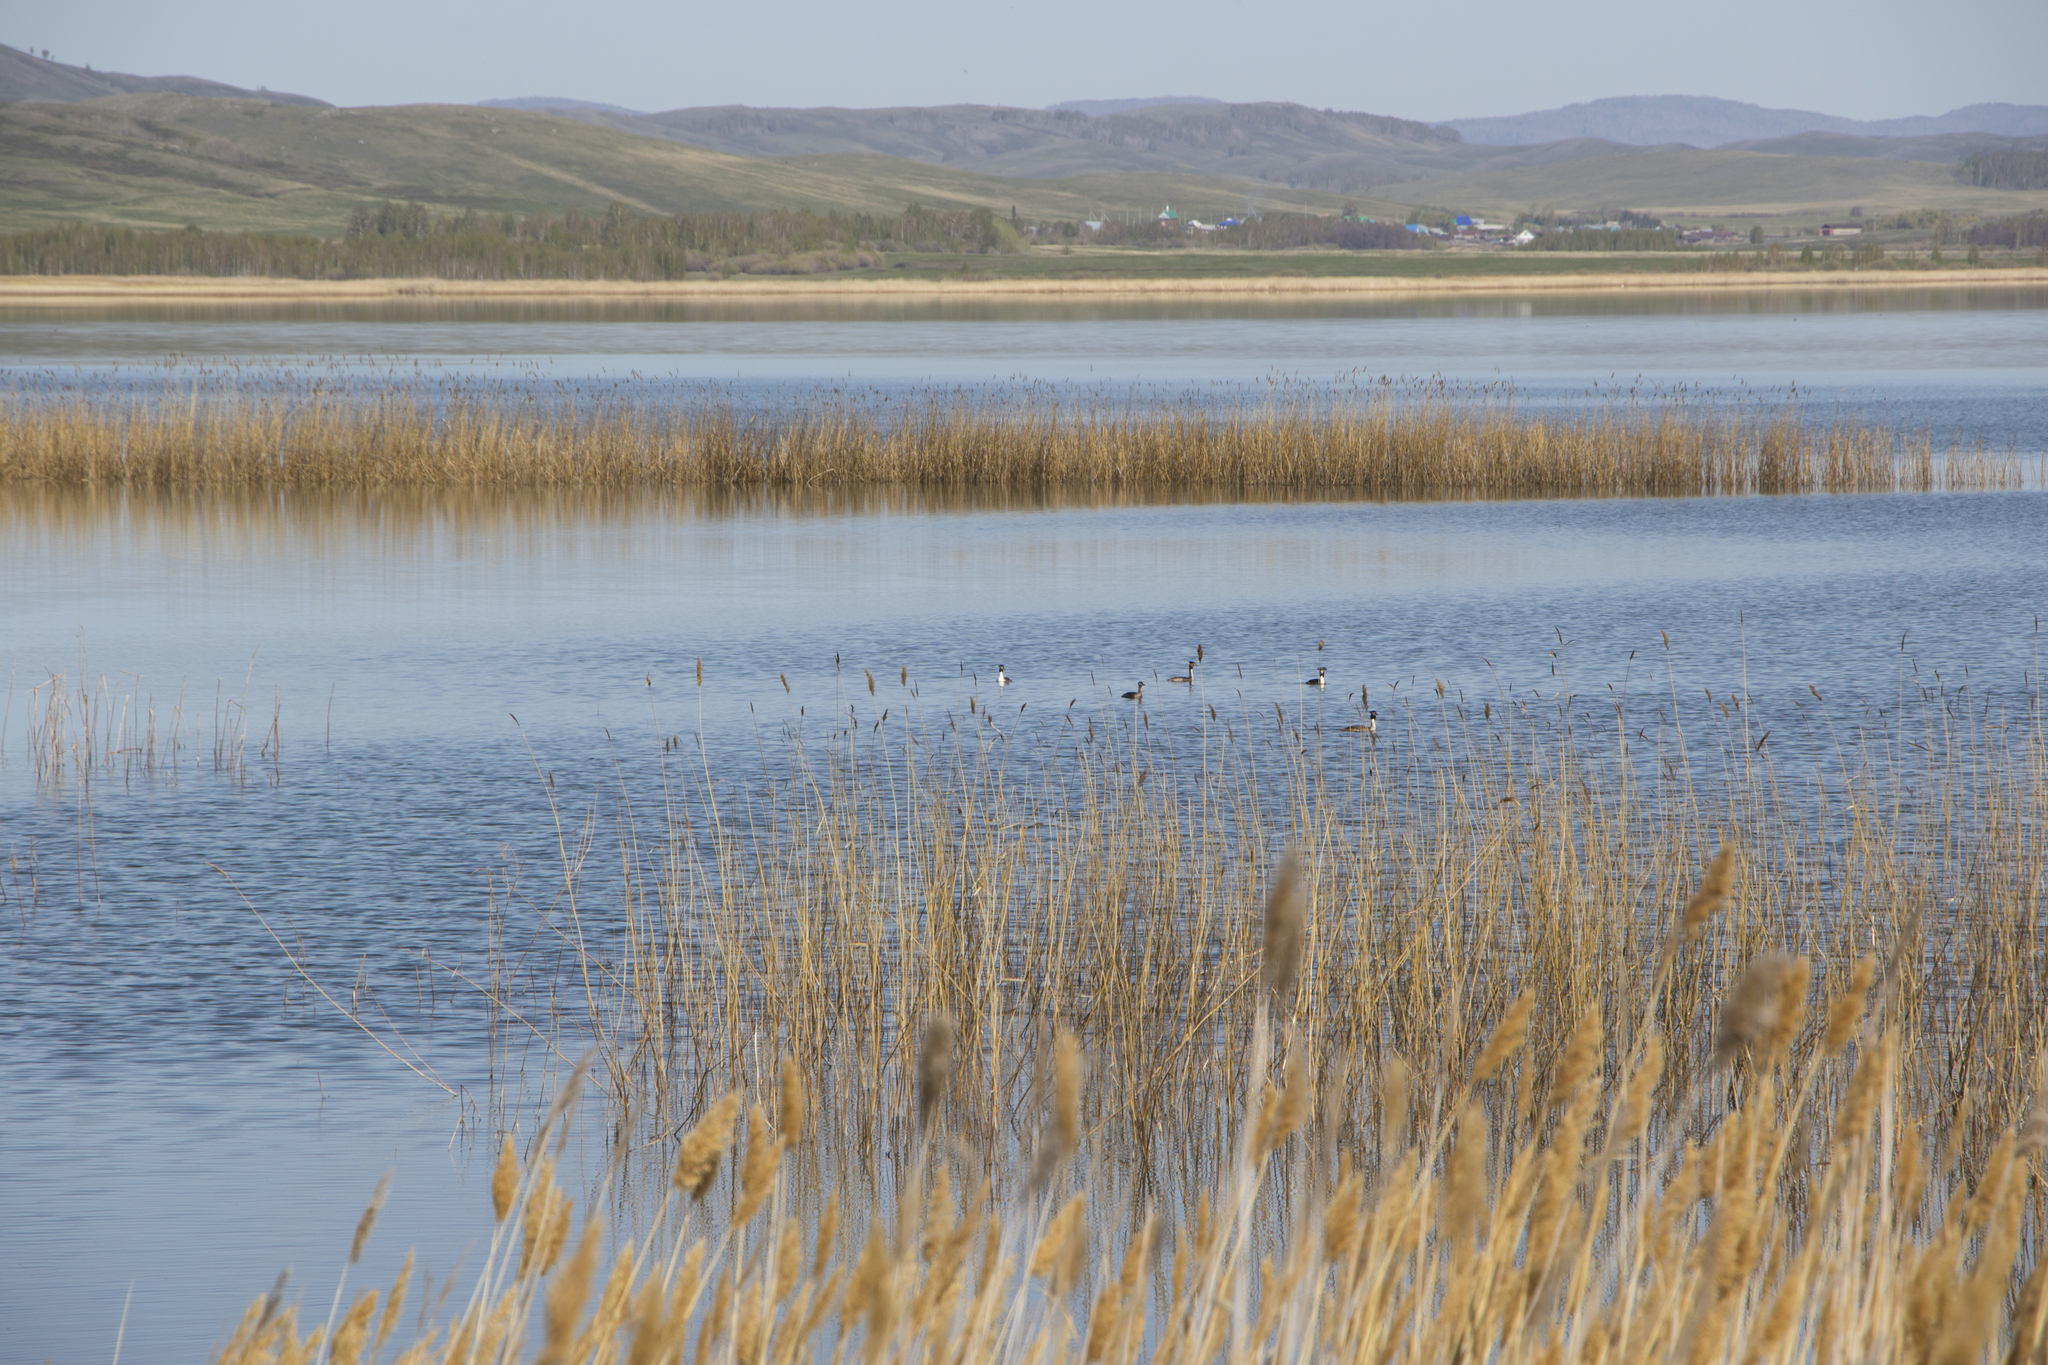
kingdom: Animalia
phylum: Chordata
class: Aves
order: Podicipediformes
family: Podicipedidae
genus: Podiceps
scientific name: Podiceps cristatus
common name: Great crested grebe
